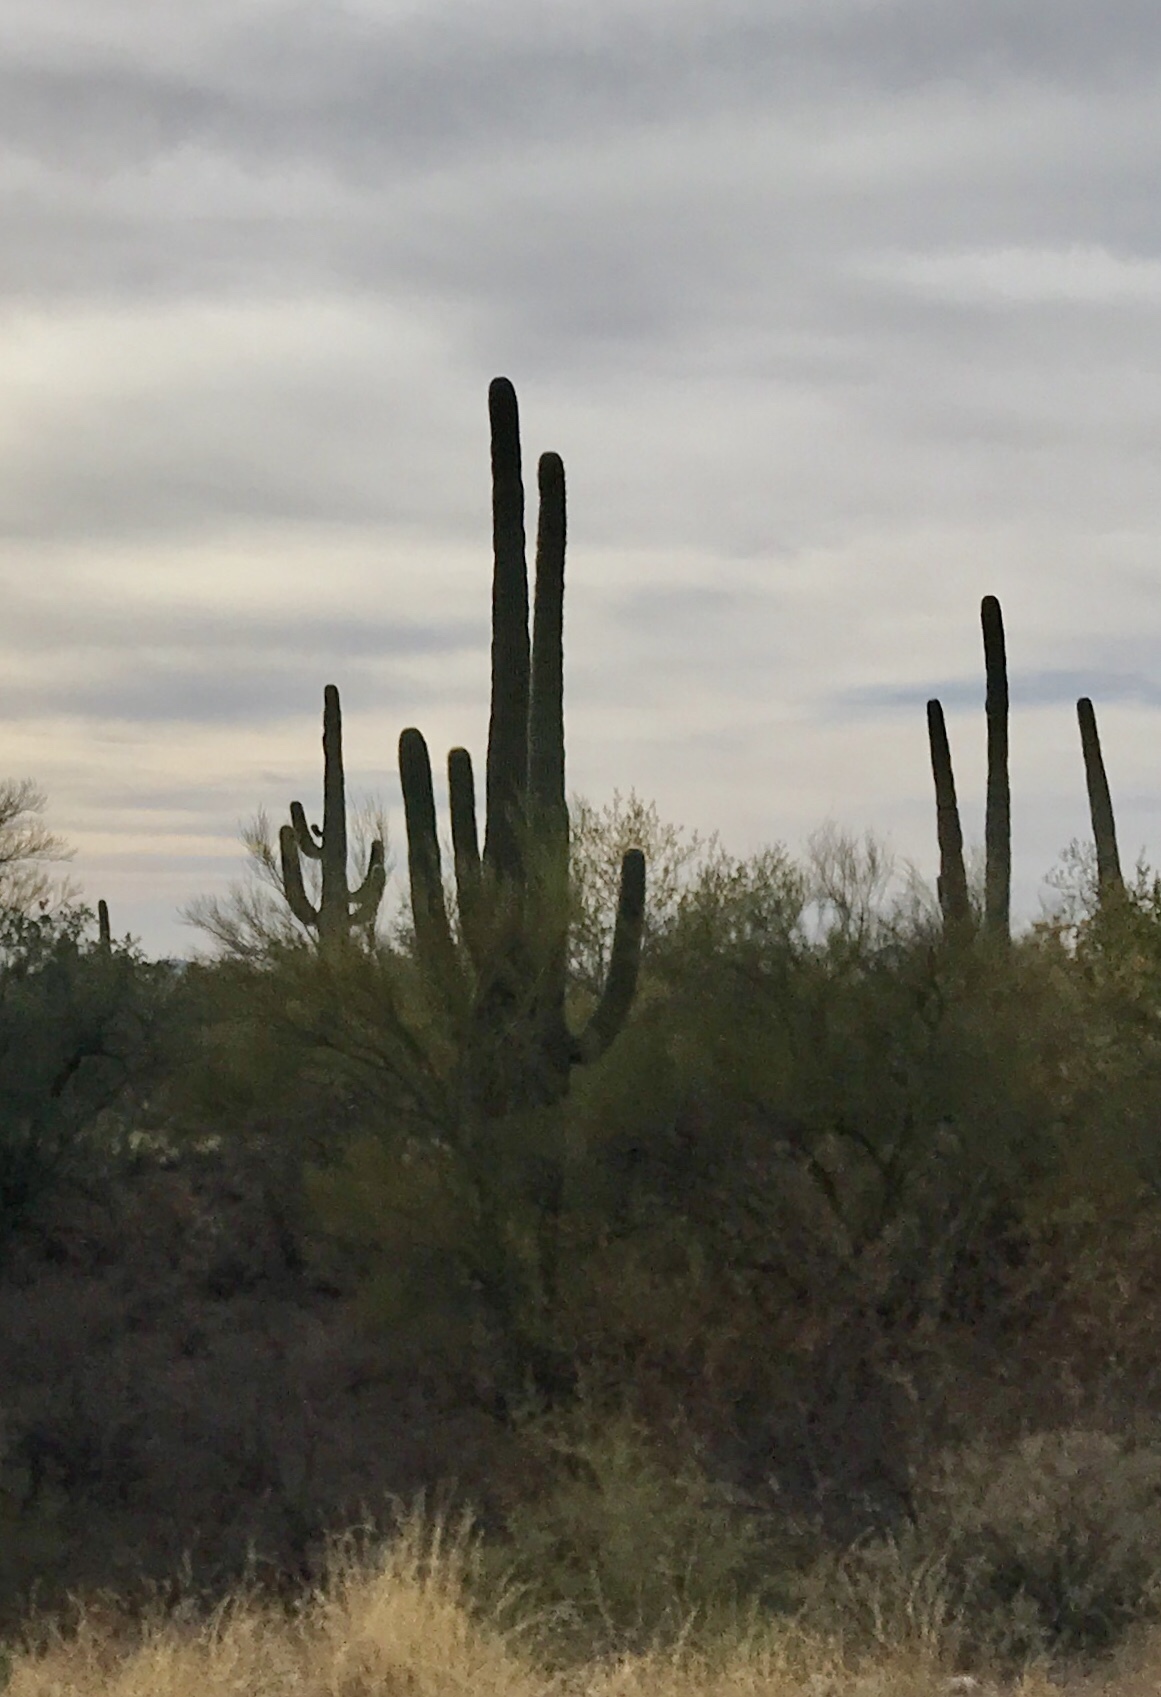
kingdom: Plantae
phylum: Tracheophyta
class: Magnoliopsida
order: Caryophyllales
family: Cactaceae
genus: Carnegiea
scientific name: Carnegiea gigantea
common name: Saguaro
